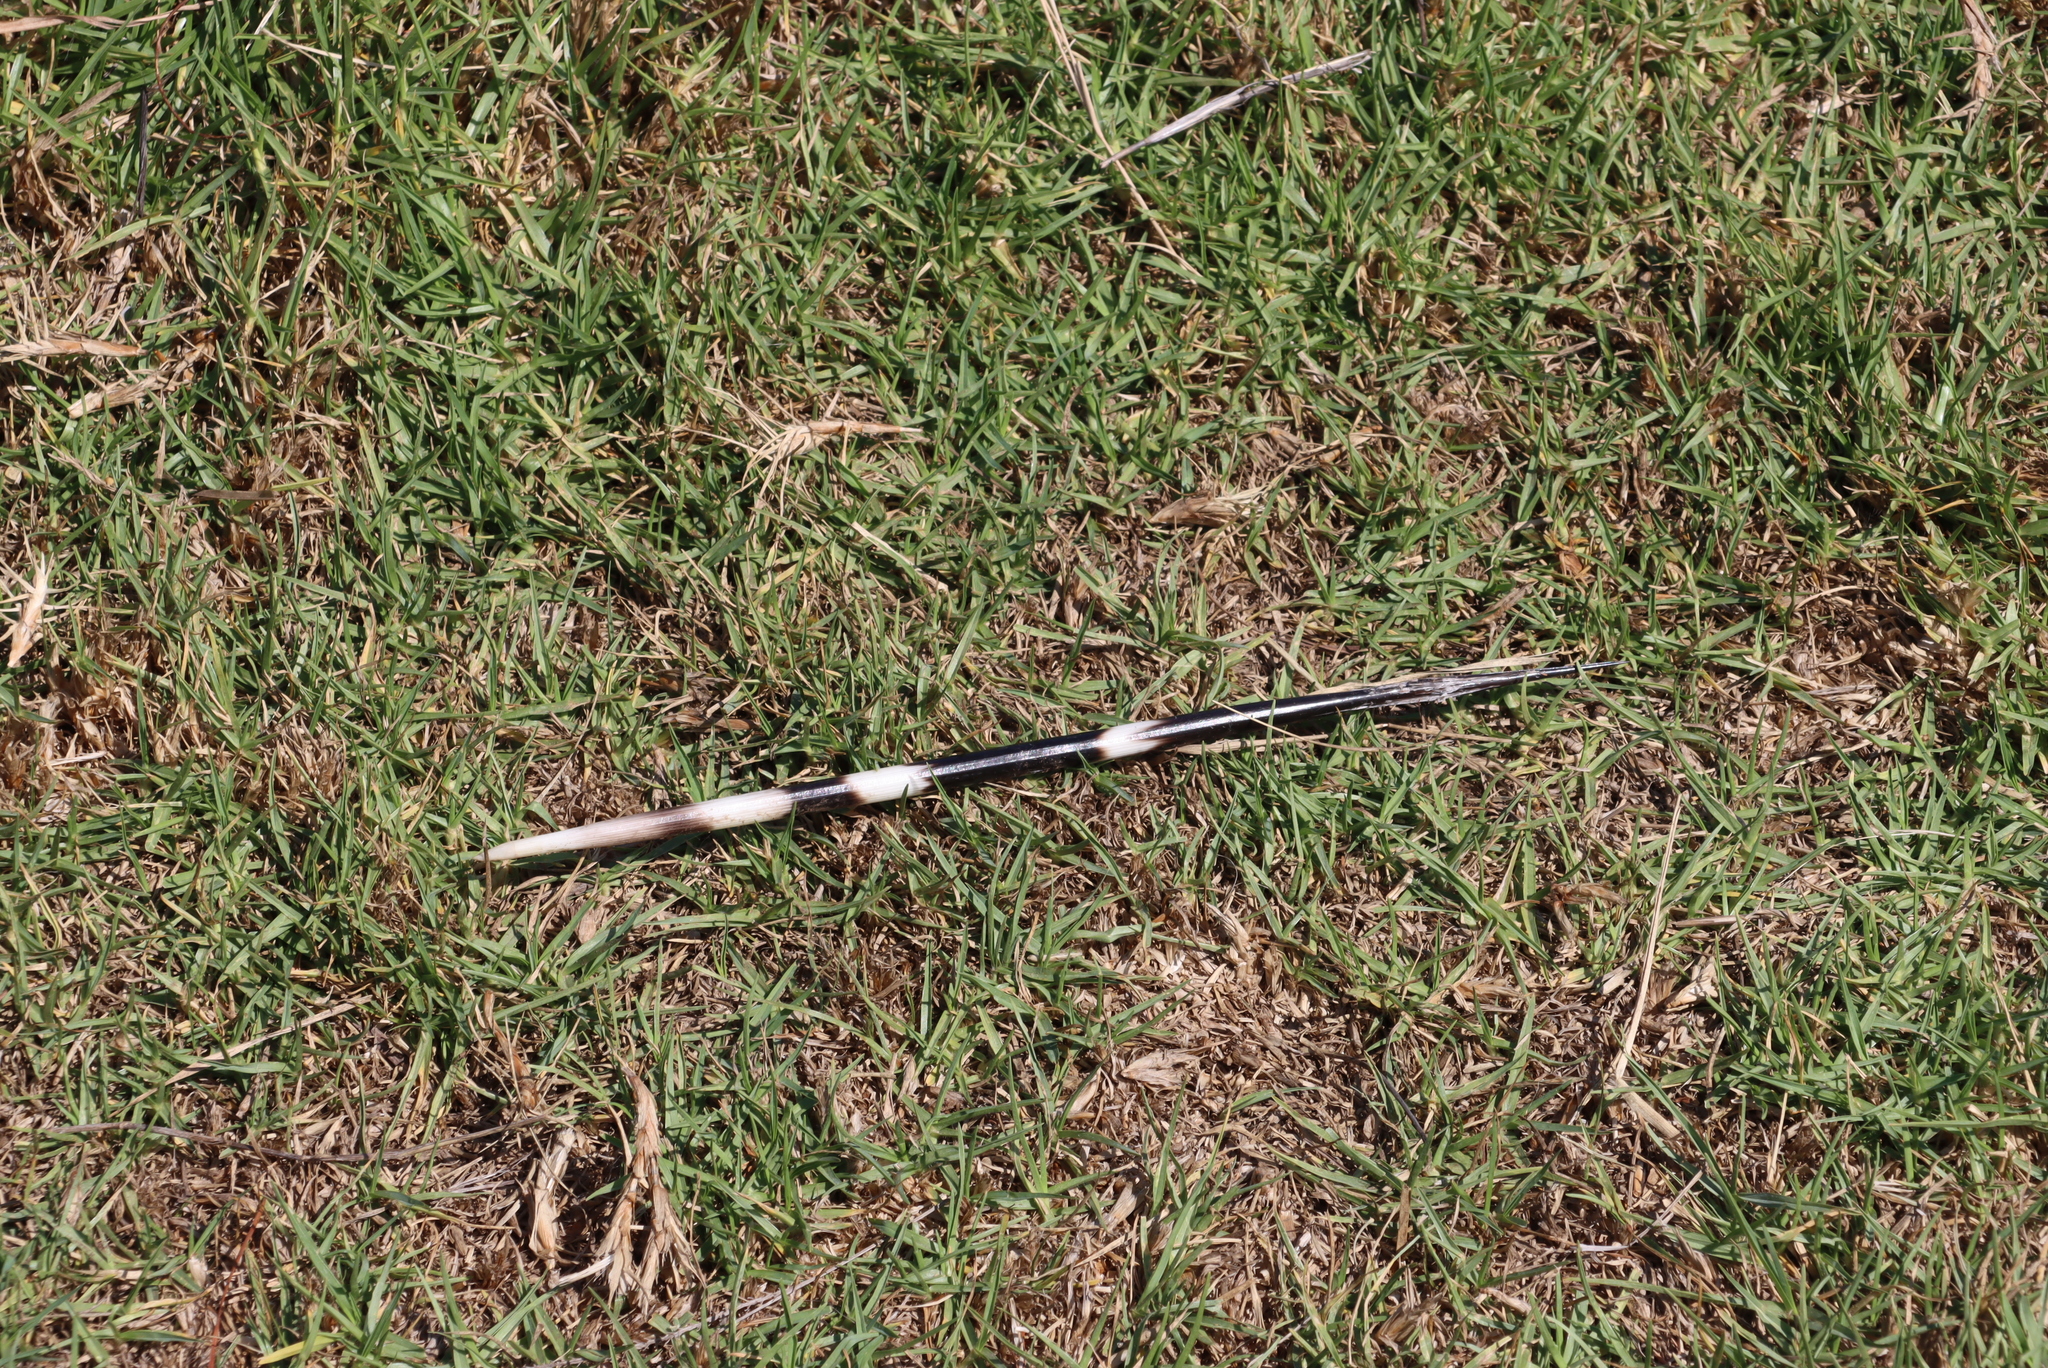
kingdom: Animalia
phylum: Chordata
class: Mammalia
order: Rodentia
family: Hystricidae
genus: Hystrix
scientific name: Hystrix africaeaustralis
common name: Cape porcupine
